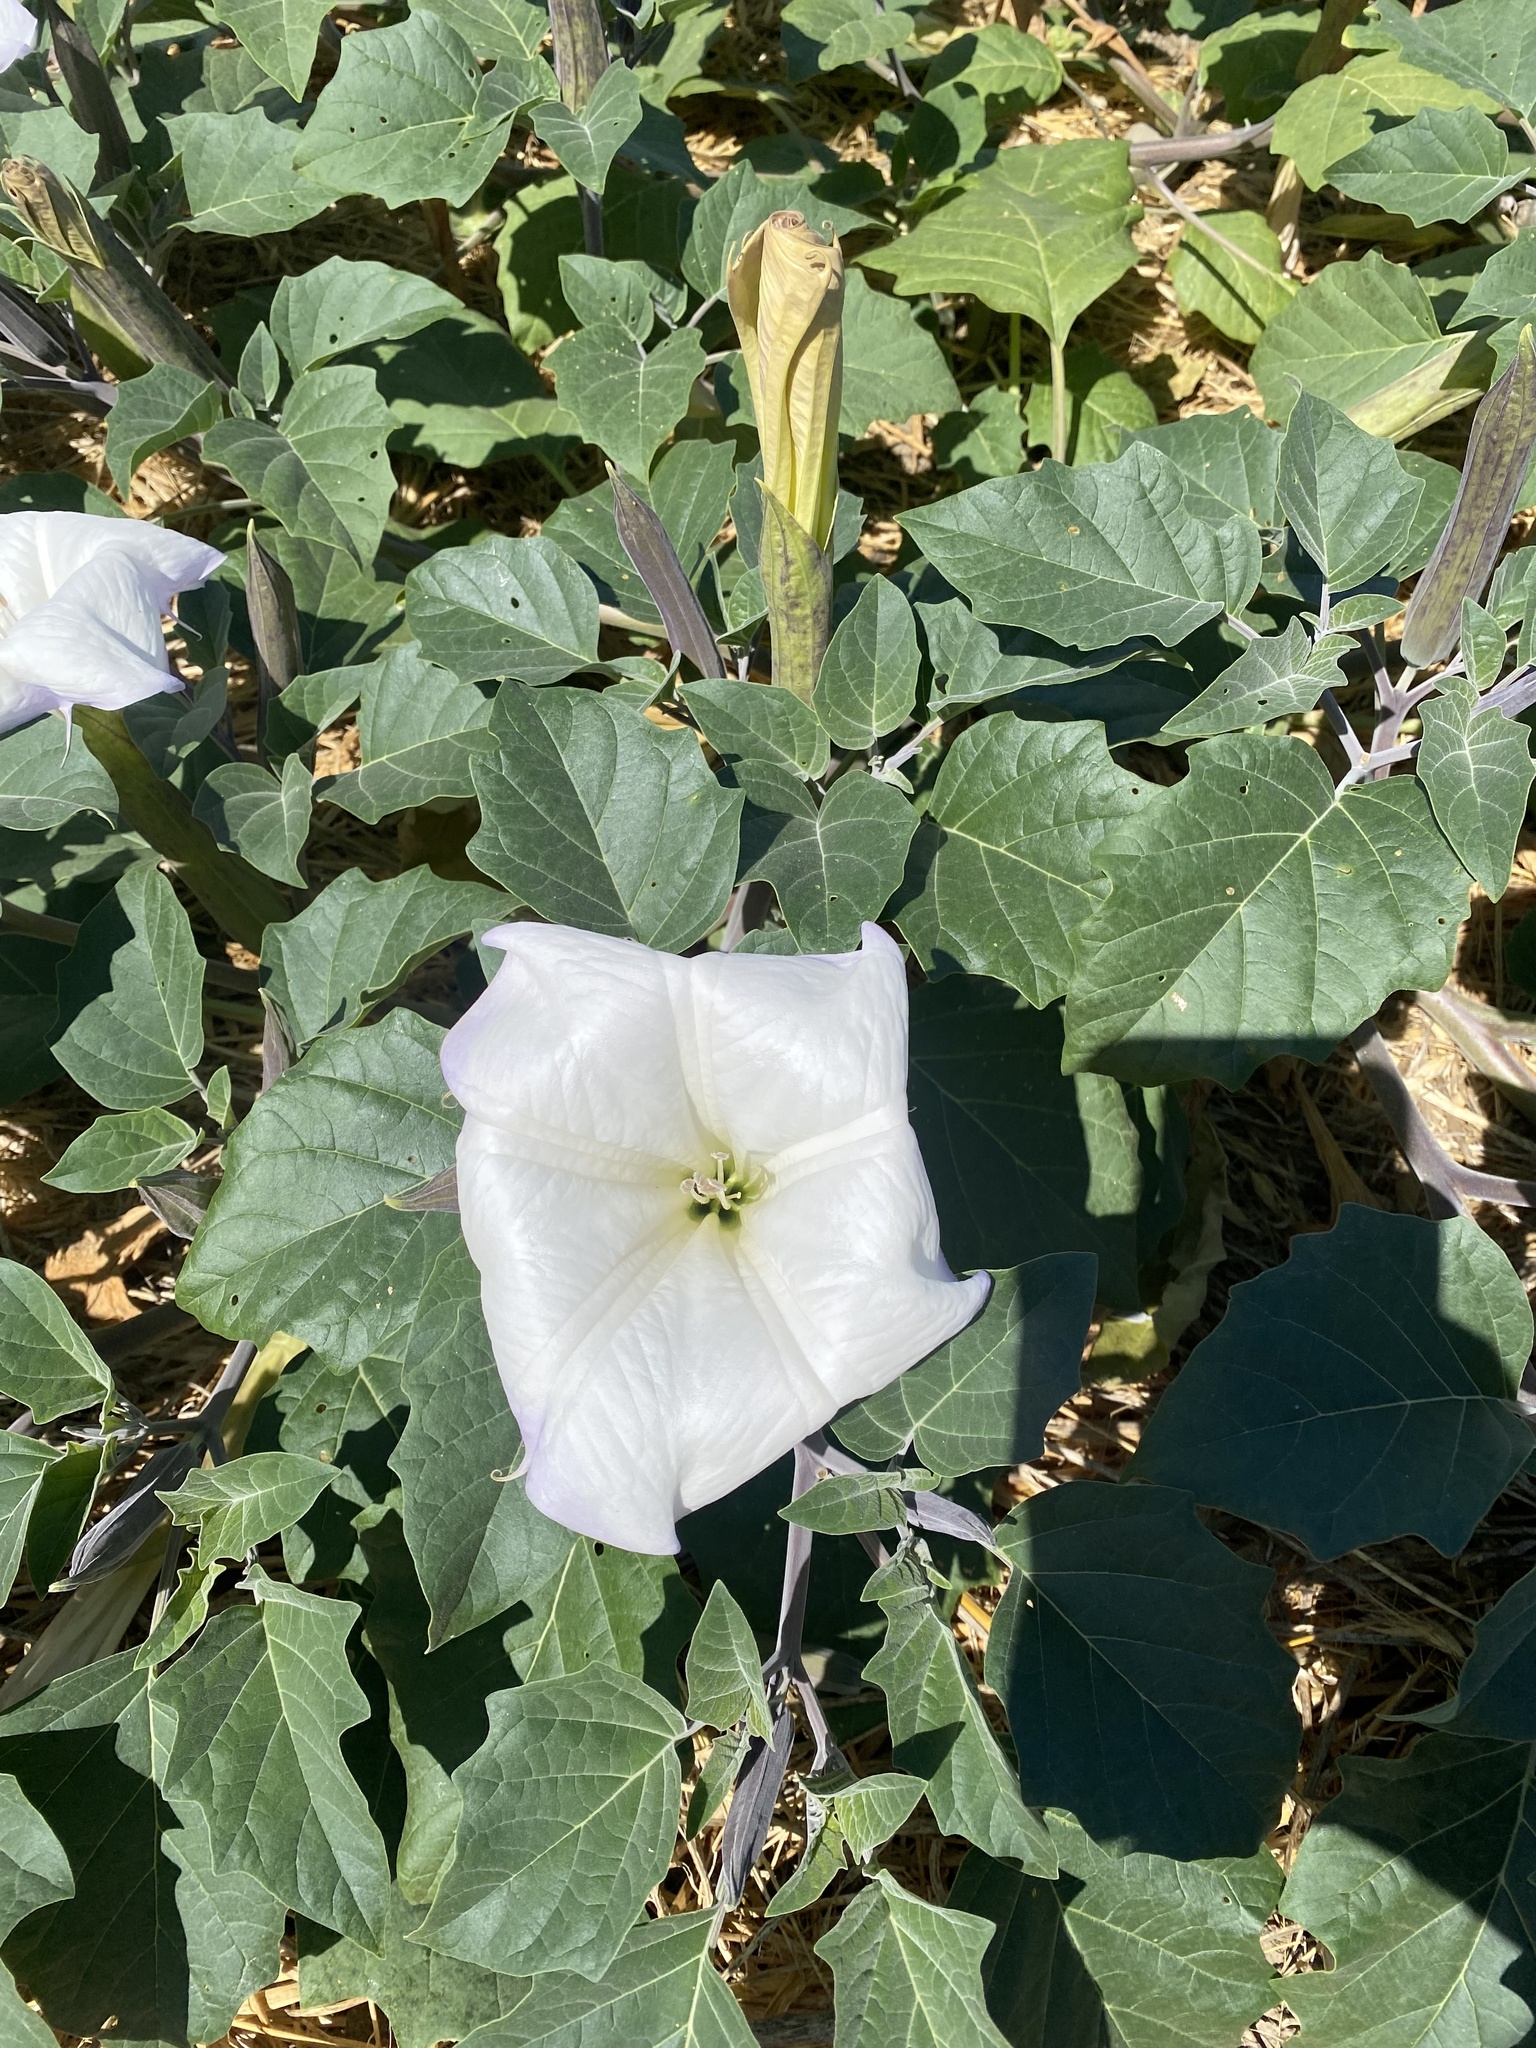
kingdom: Plantae
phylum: Tracheophyta
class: Magnoliopsida
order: Solanales
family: Solanaceae
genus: Datura
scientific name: Datura wrightii
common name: Sacred thorn-apple
